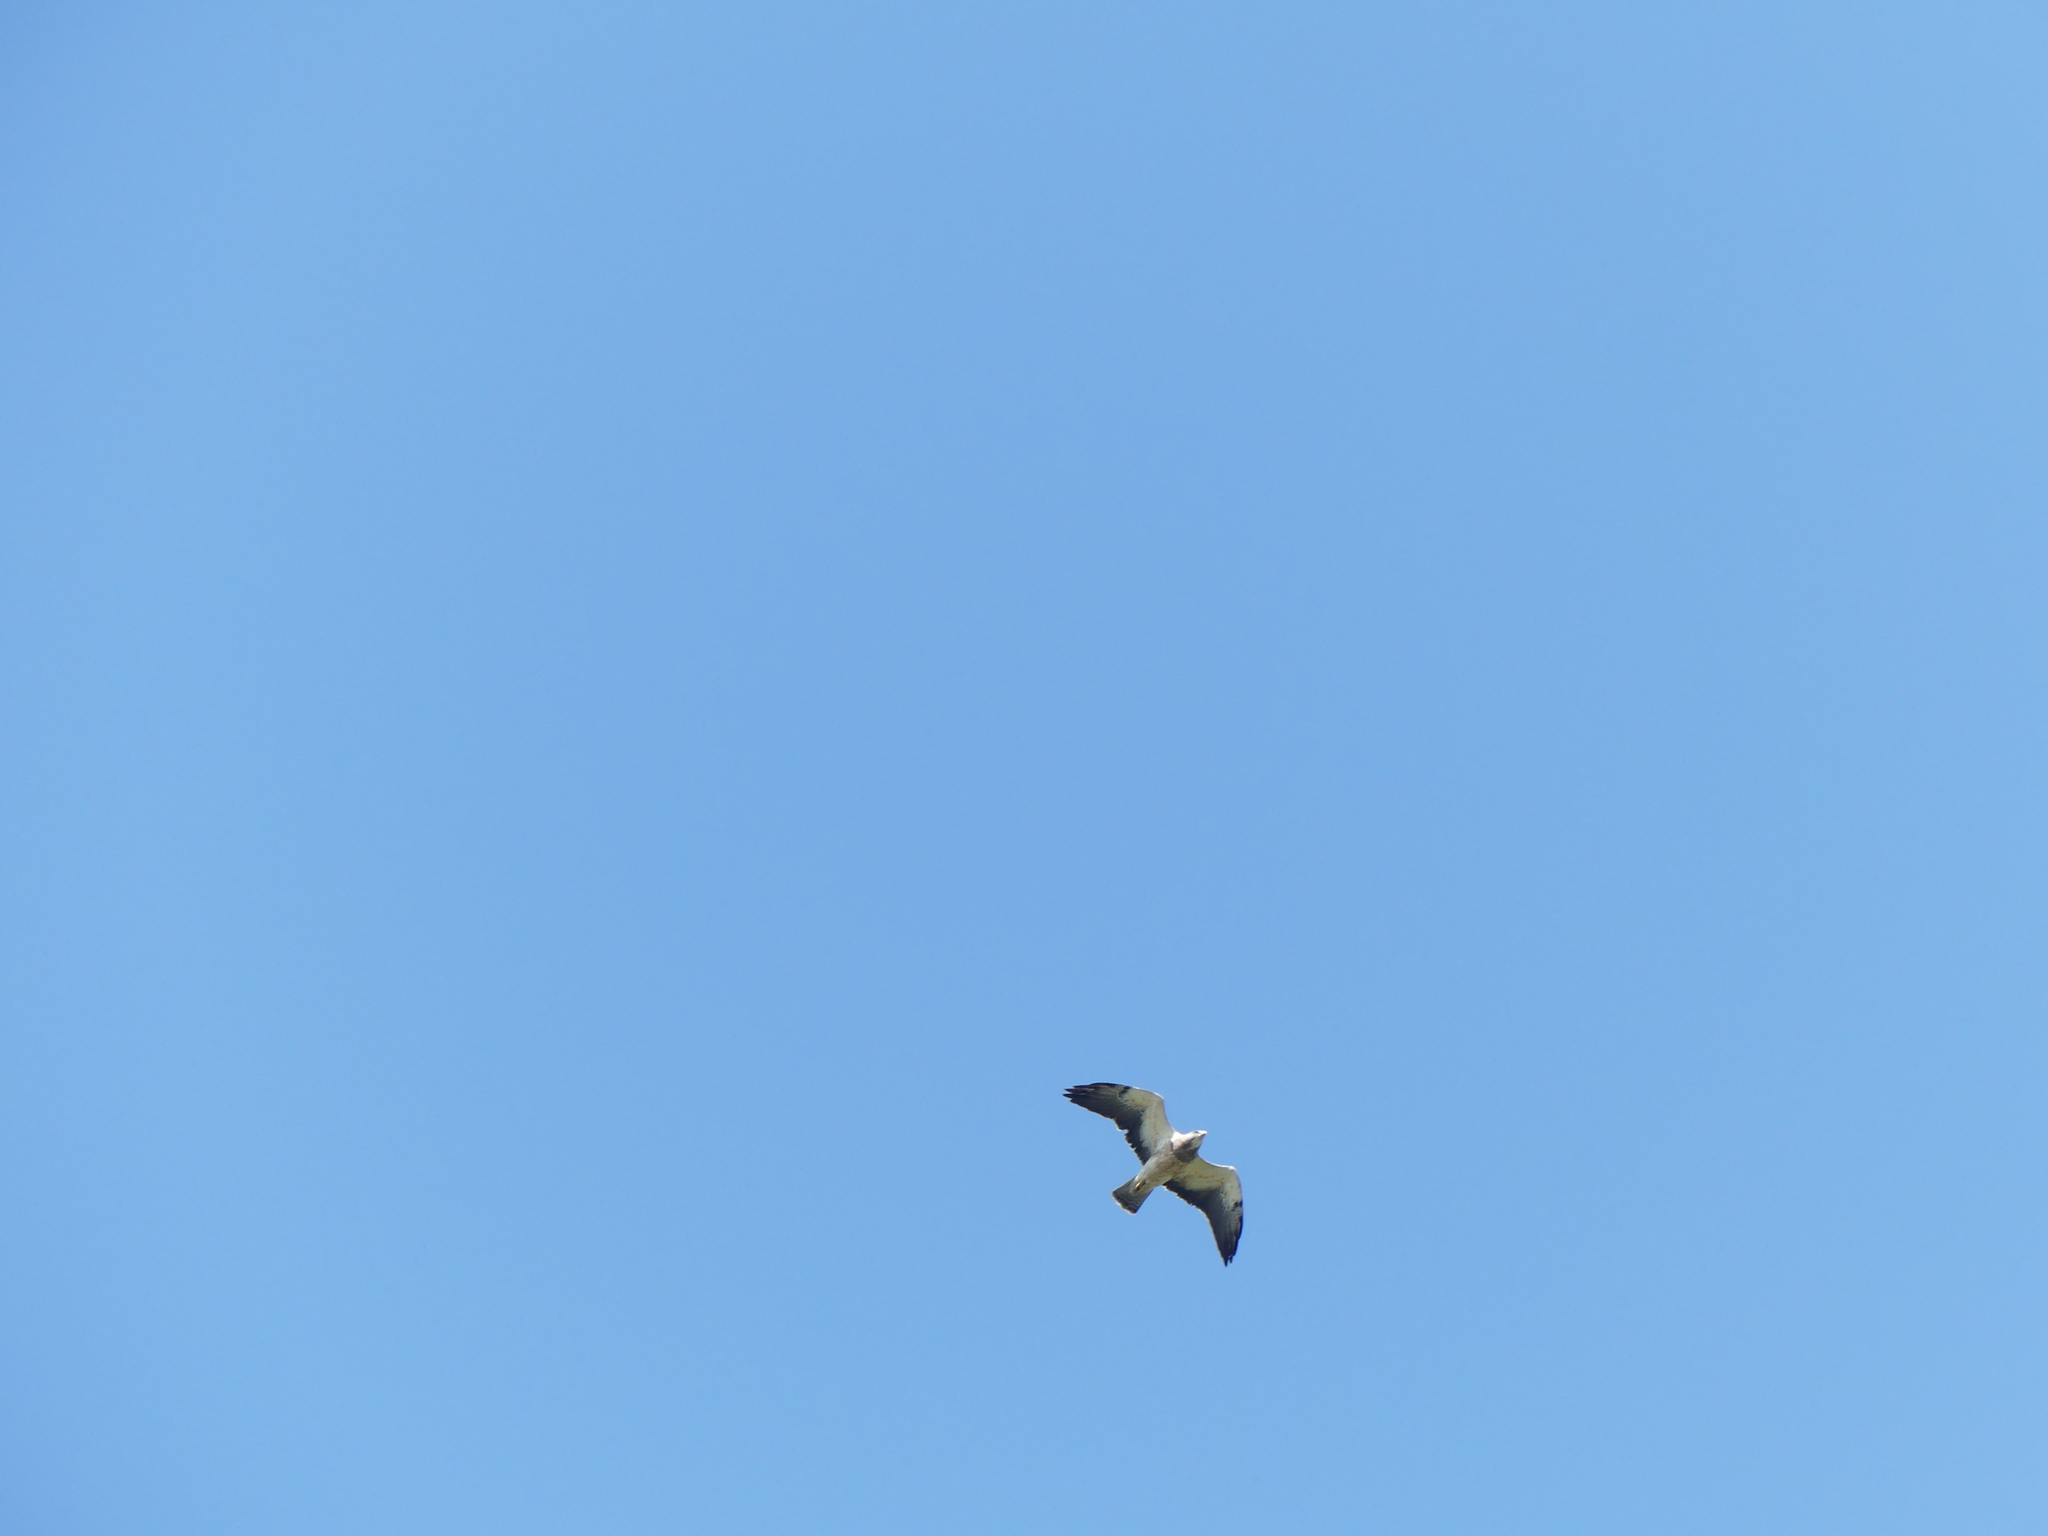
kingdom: Animalia
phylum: Chordata
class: Aves
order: Accipitriformes
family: Accipitridae
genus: Buteo
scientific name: Buteo swainsoni
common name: Swainson's hawk
